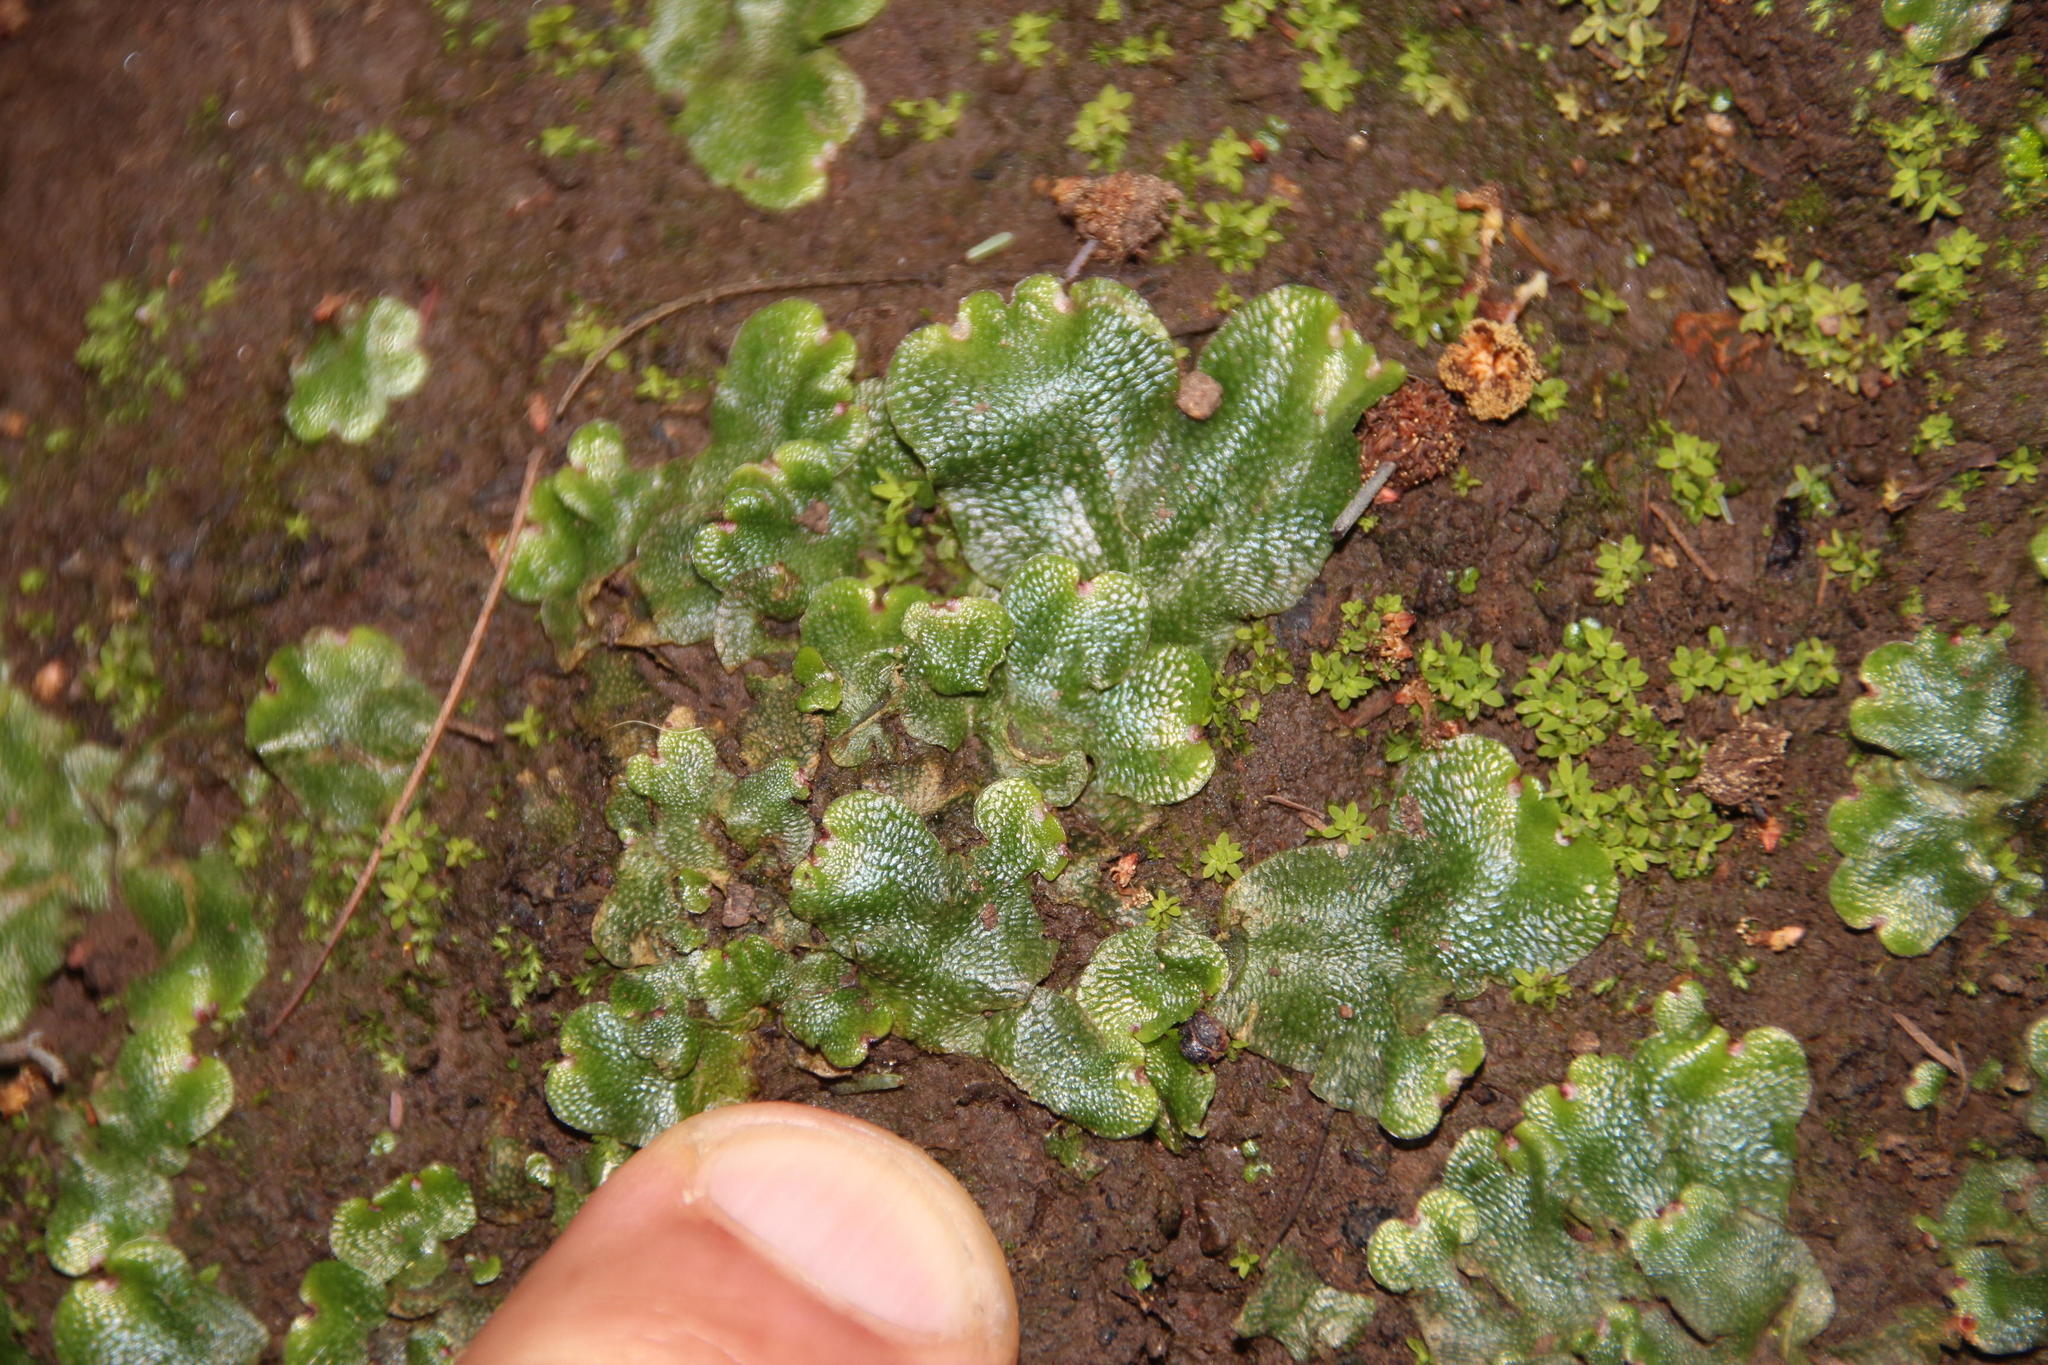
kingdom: Plantae
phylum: Marchantiophyta
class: Marchantiopsida
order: Lunulariales
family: Lunulariaceae
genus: Lunularia
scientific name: Lunularia cruciata
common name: Crescent-cup liverwort
